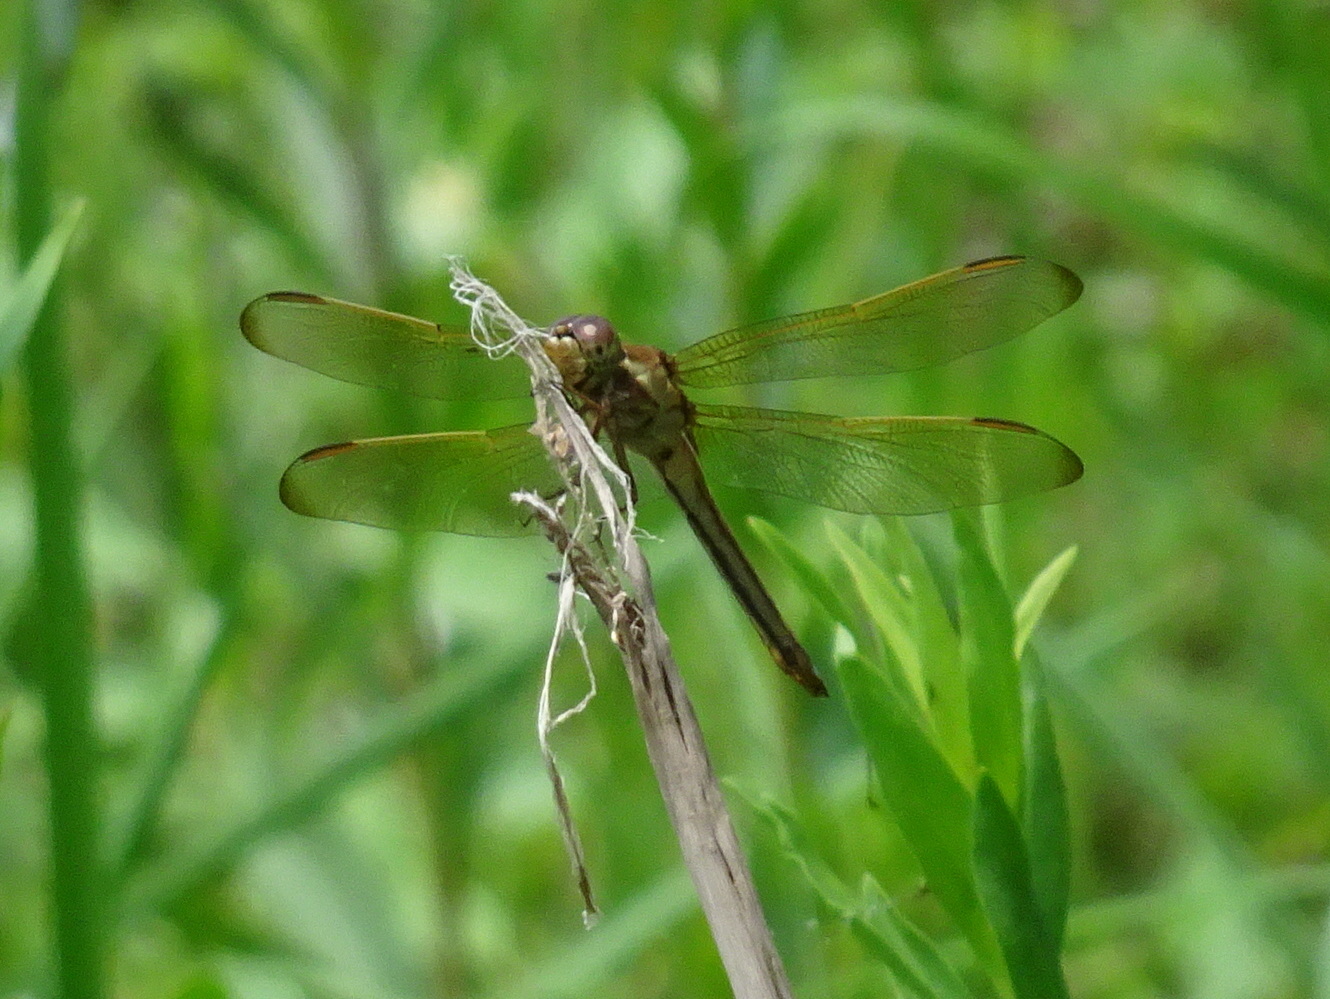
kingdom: Animalia
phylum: Arthropoda
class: Insecta
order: Odonata
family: Libellulidae
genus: Libellula
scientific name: Libellula needhami
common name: Needham's skimmer
